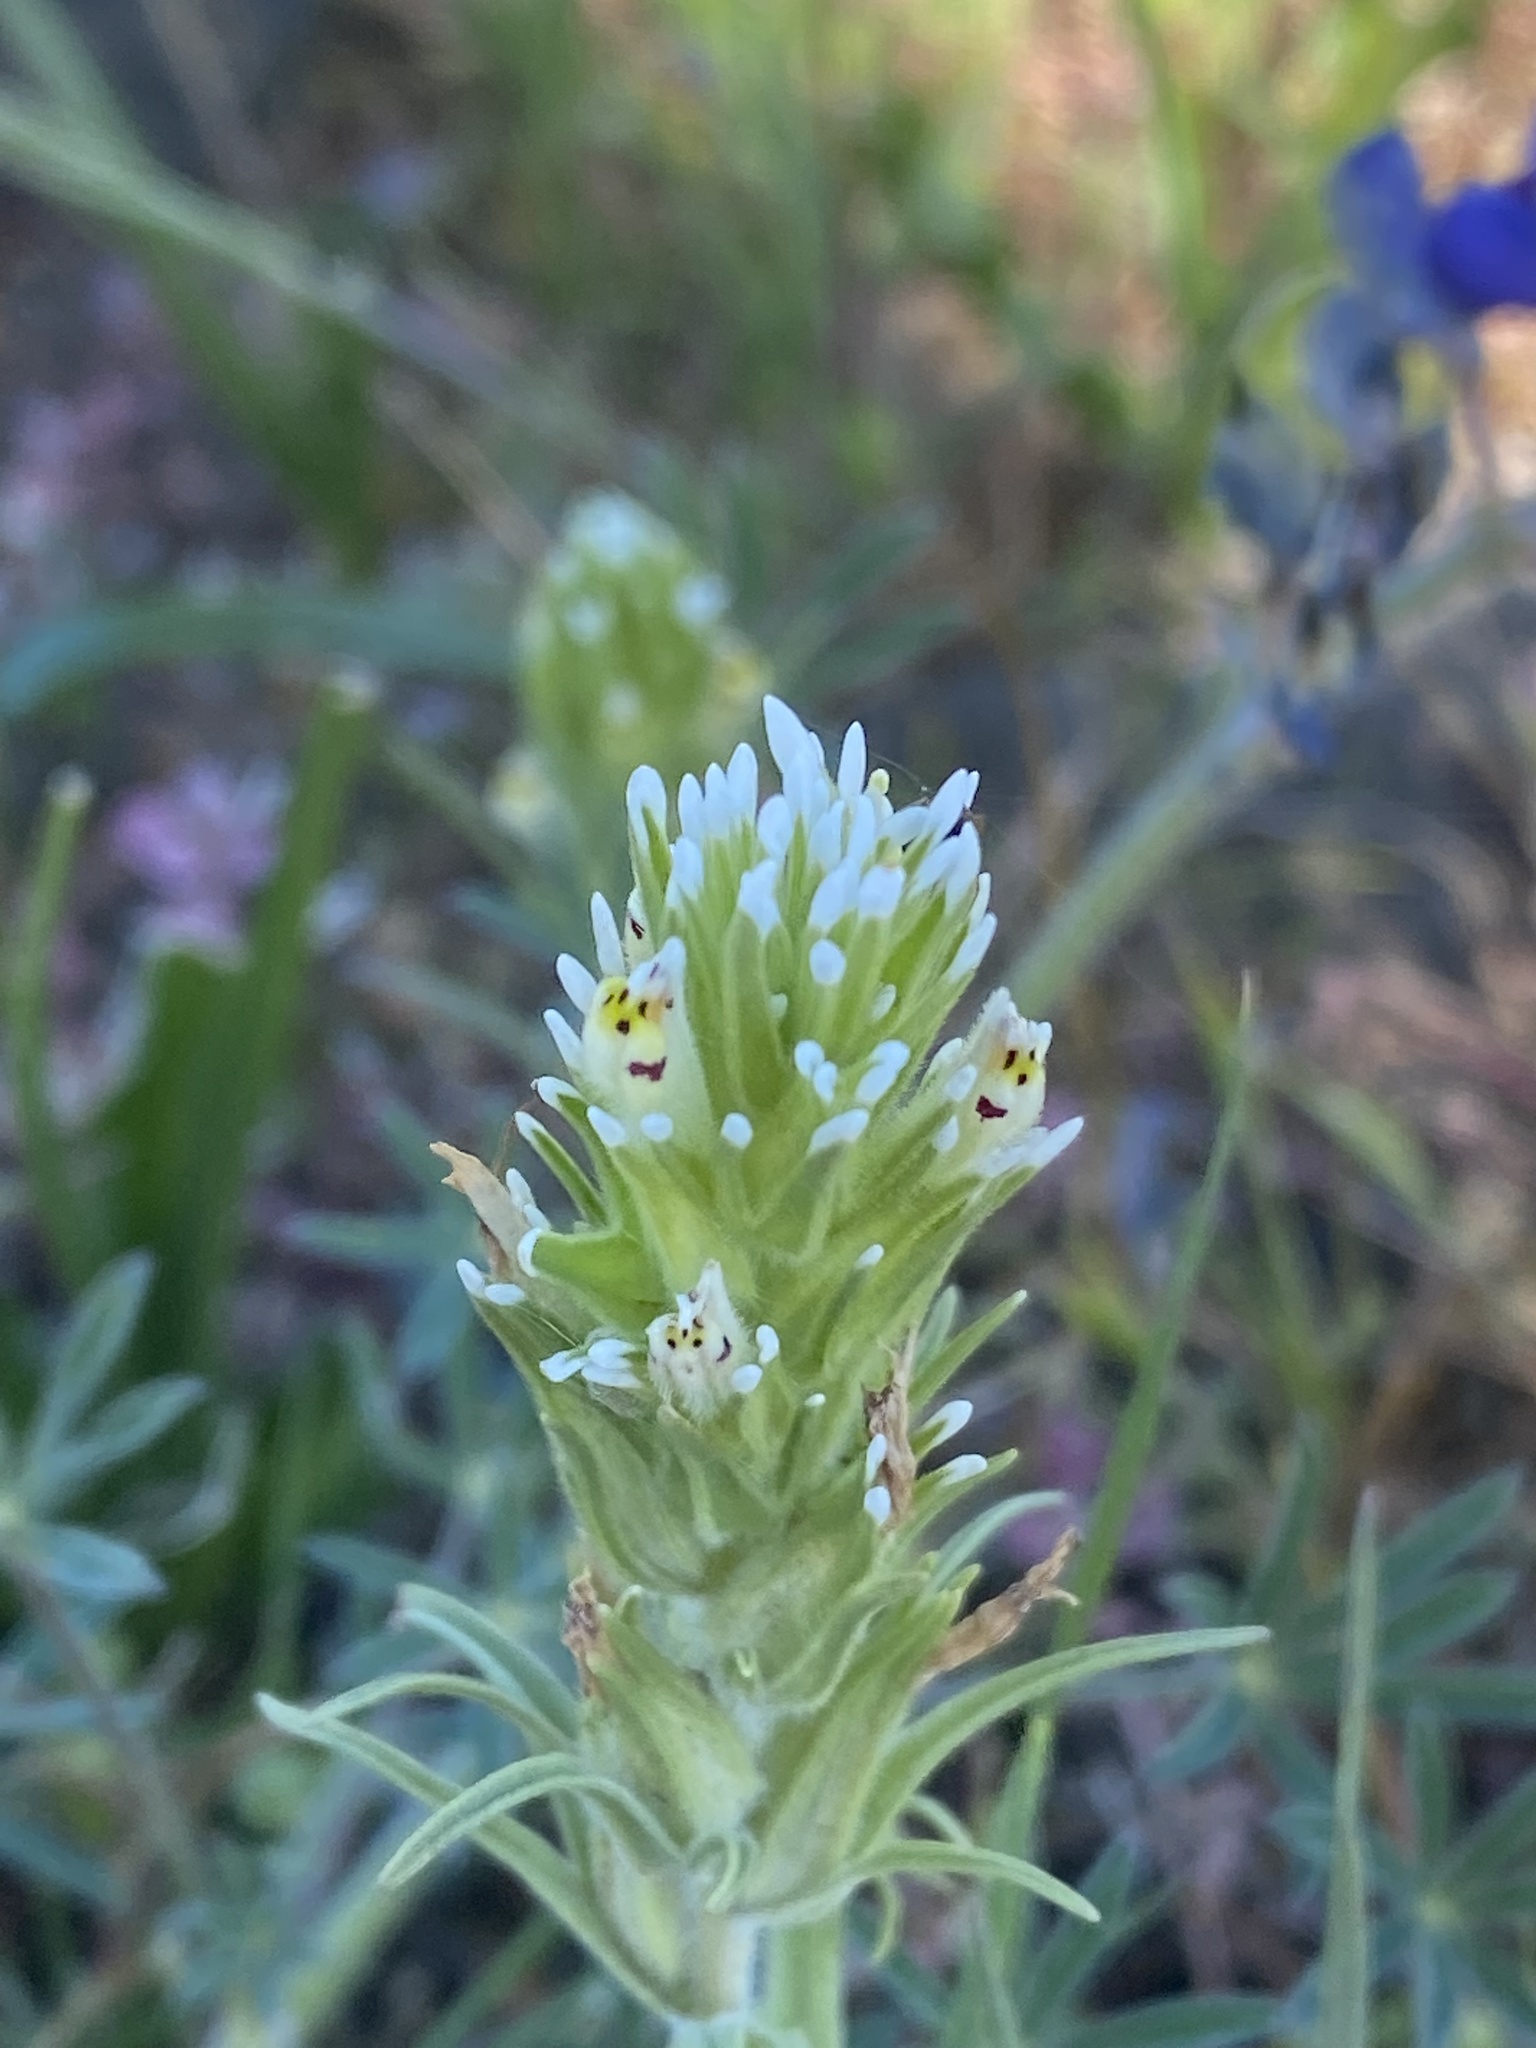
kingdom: Plantae
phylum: Tracheophyta
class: Magnoliopsida
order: Lamiales
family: Orobanchaceae
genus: Castilleja
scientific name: Castilleja attenuata
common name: Valley tassels
